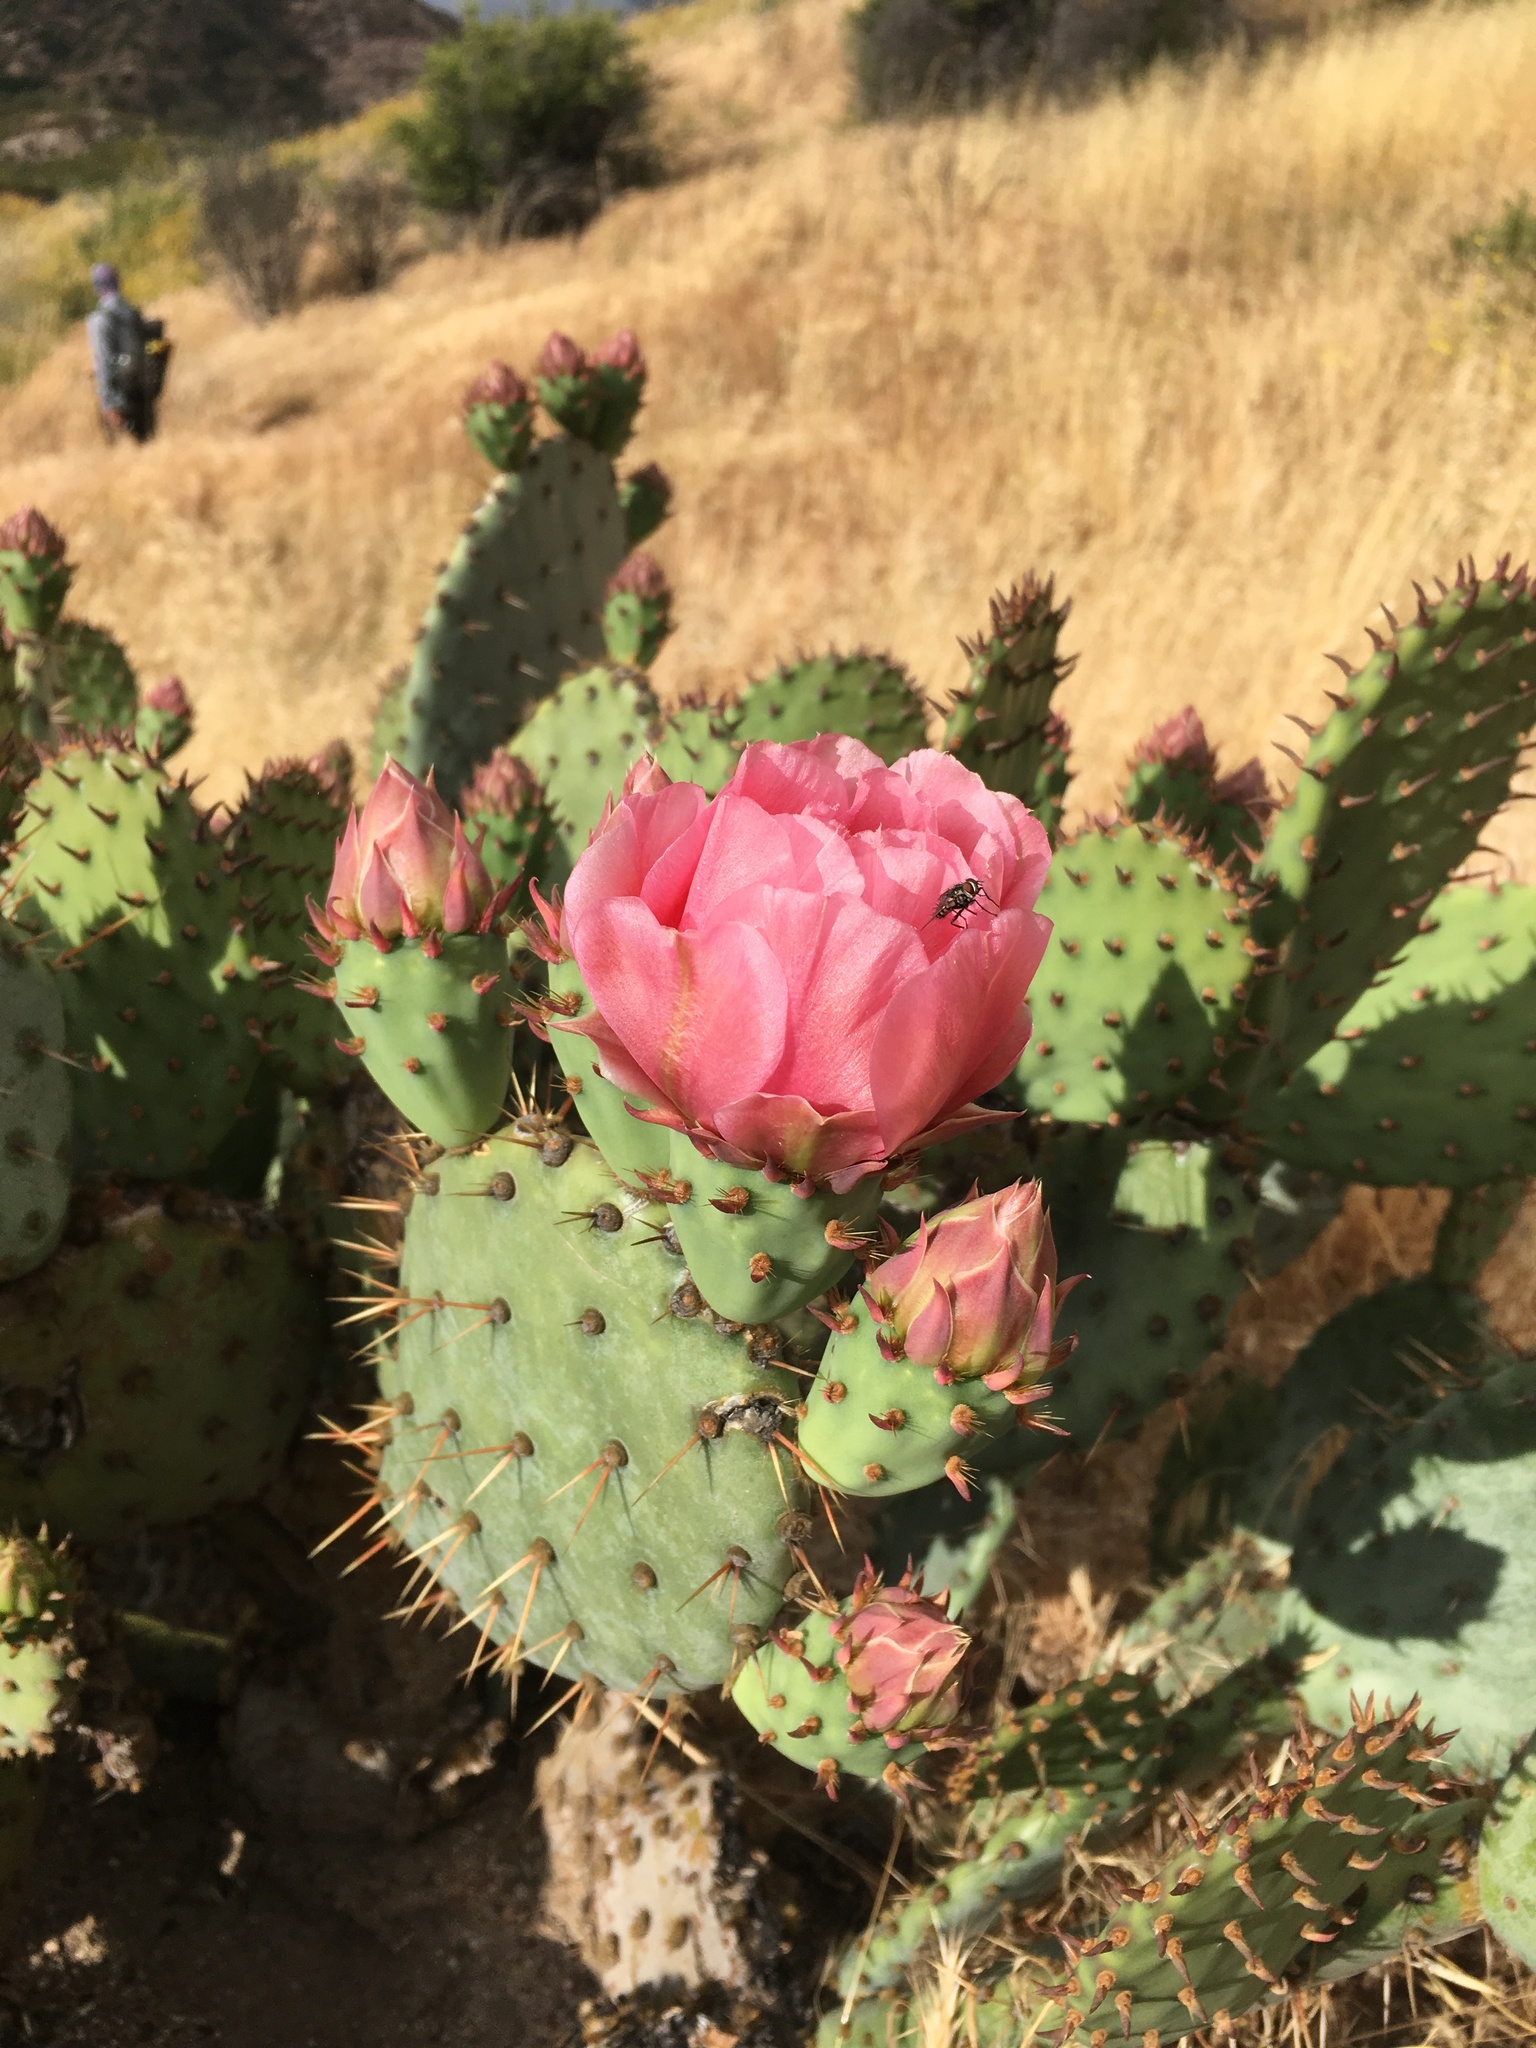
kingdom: Plantae
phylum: Tracheophyta
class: Magnoliopsida
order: Caryophyllales
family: Cactaceae
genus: Opuntia
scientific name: Opuntia vaseyi
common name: Apricot prickly-pear
